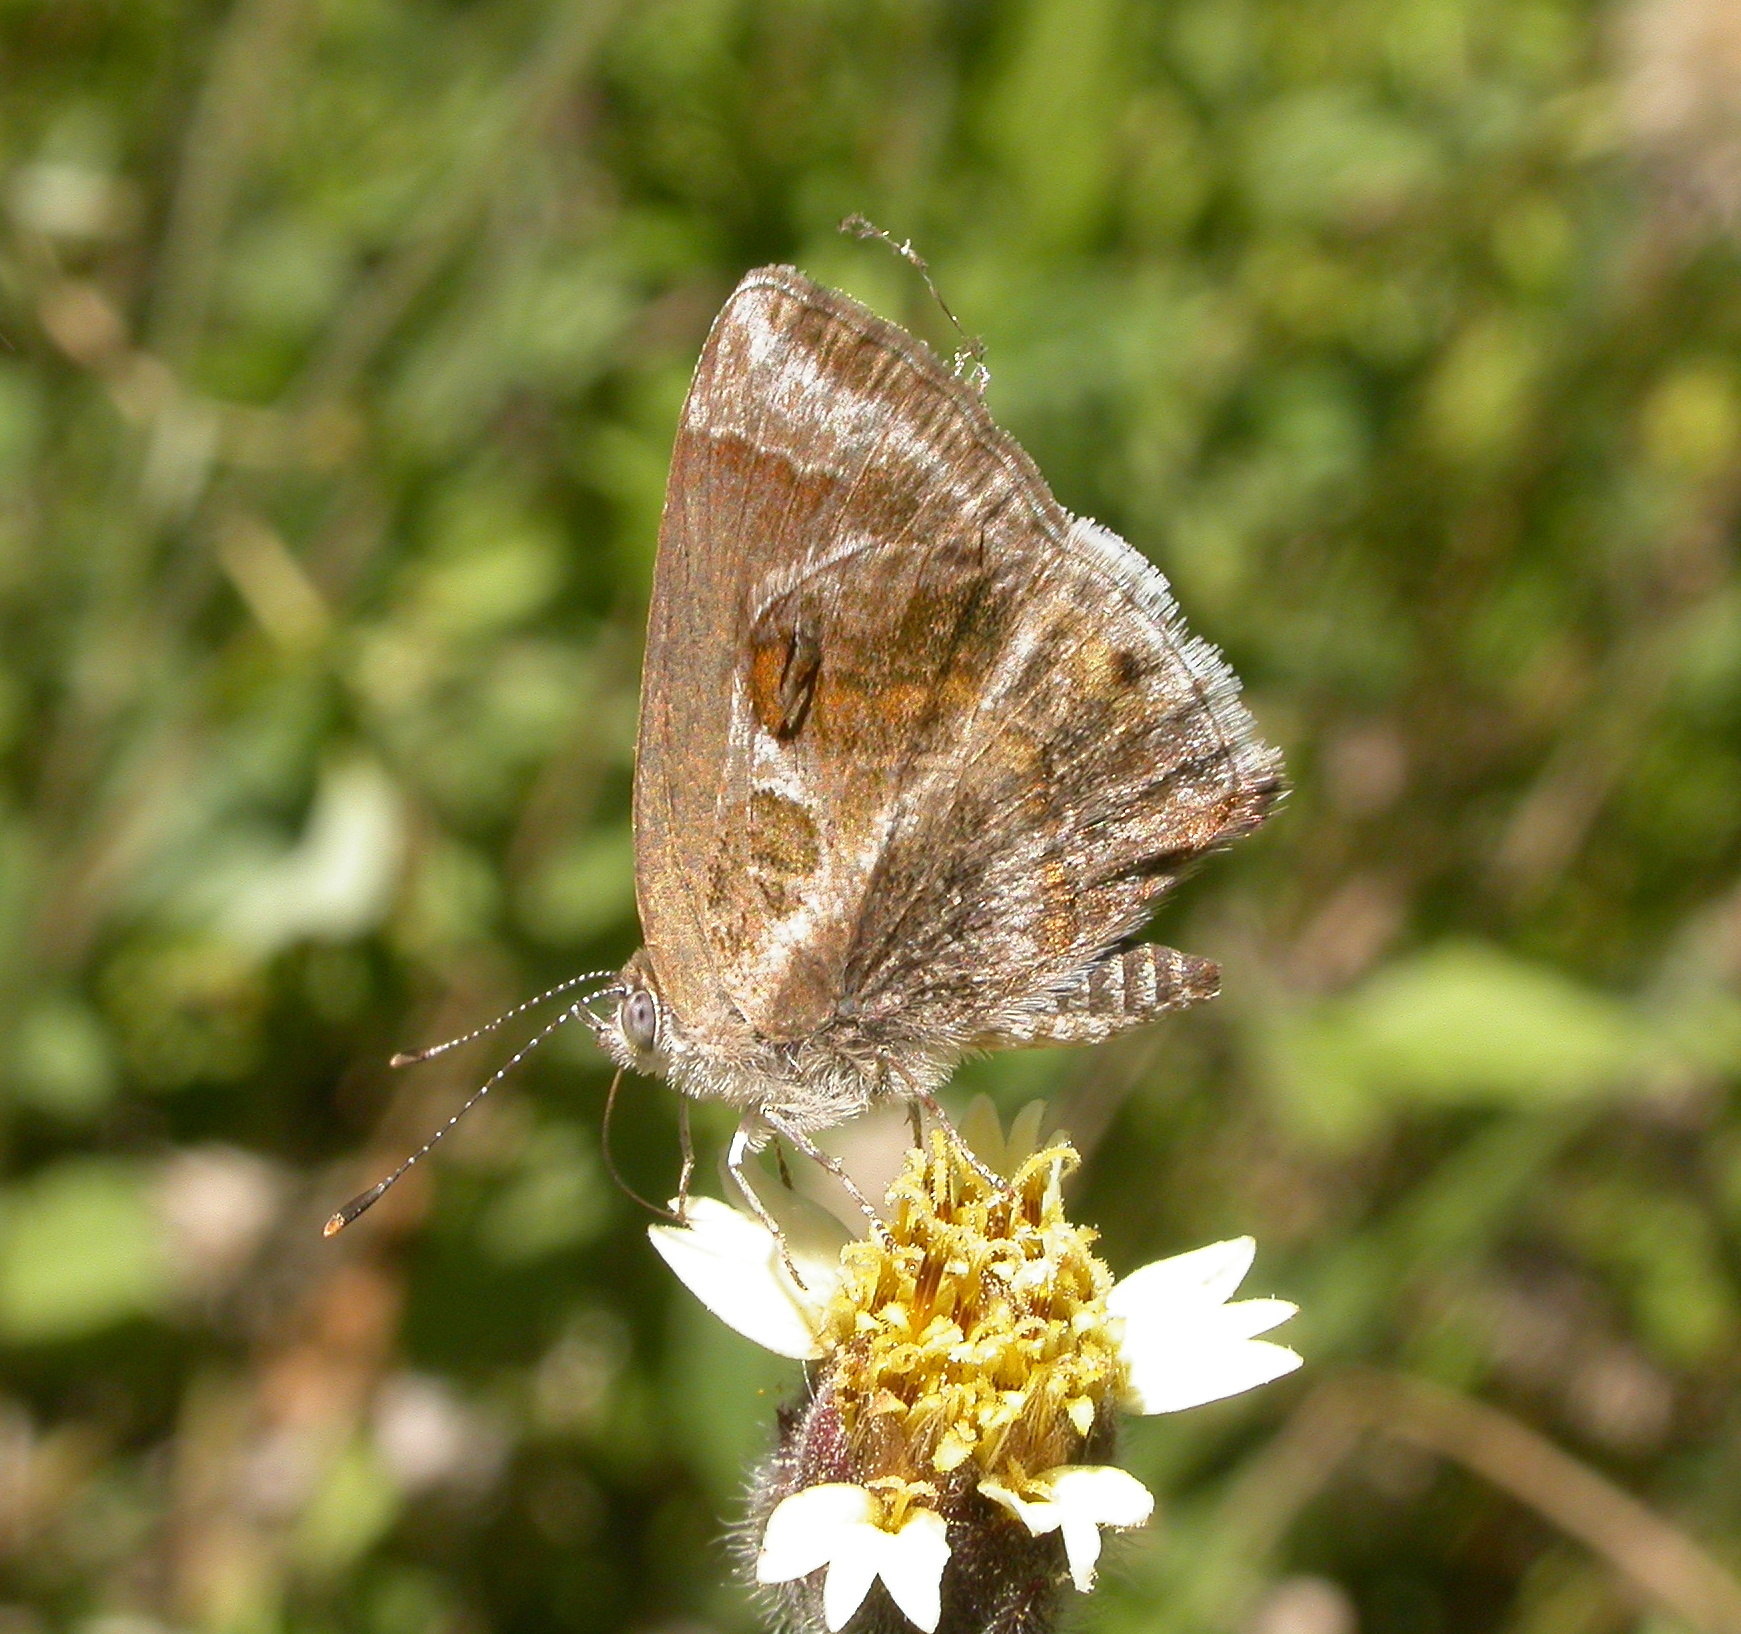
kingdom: Animalia
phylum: Arthropoda
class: Insecta
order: Lepidoptera
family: Lycaenidae
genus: Strymon
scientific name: Strymon bazochii
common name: Lantana scrub-hairstreak
